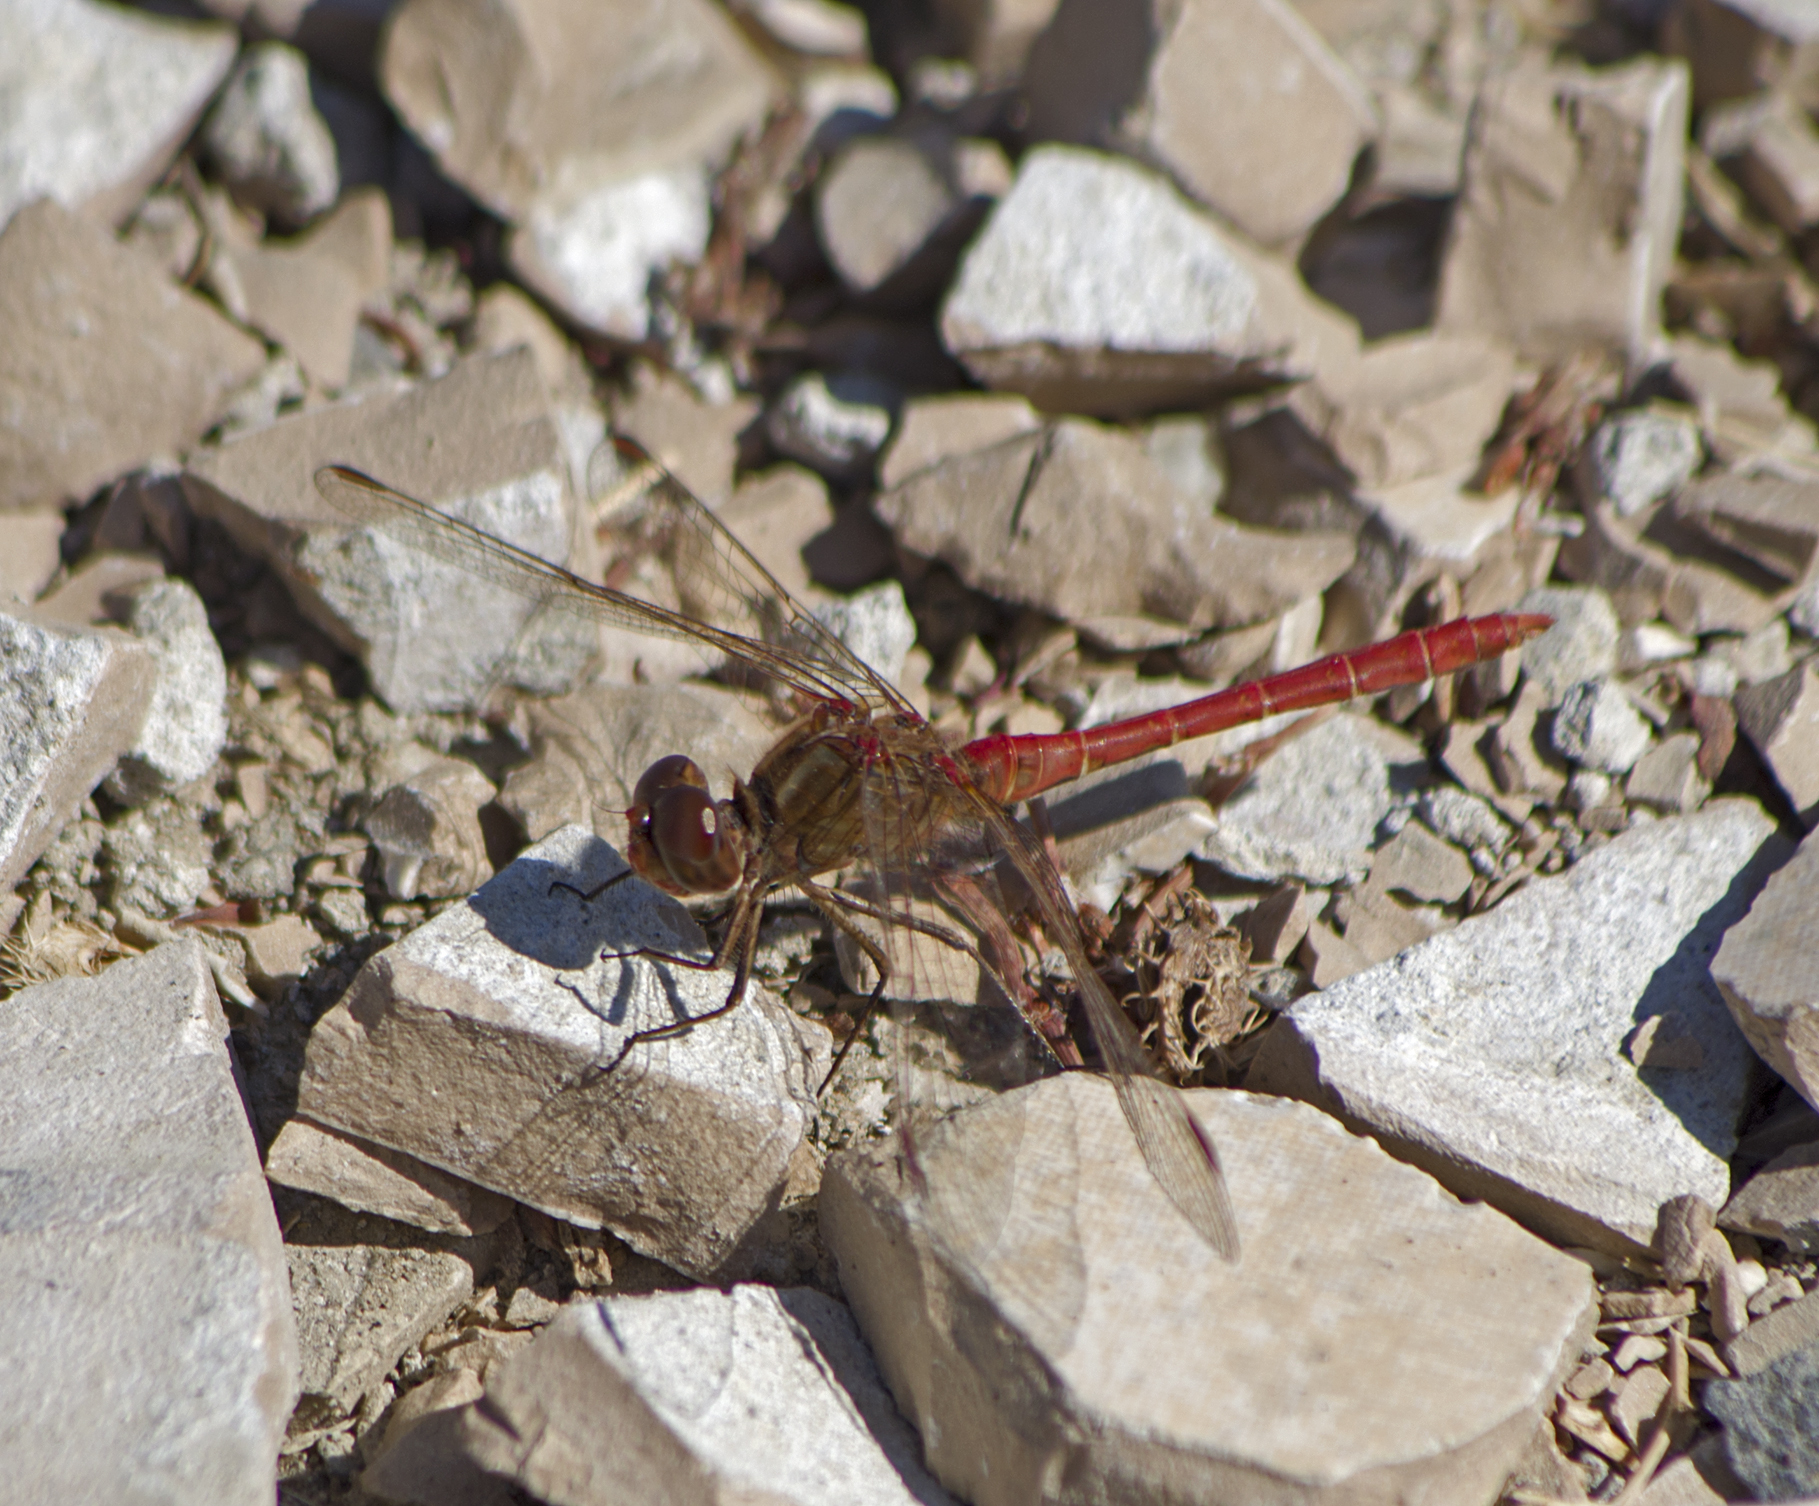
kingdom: Animalia
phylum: Arthropoda
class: Insecta
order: Odonata
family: Libellulidae
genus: Sympetrum
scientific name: Sympetrum meridionale
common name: Southern darter
